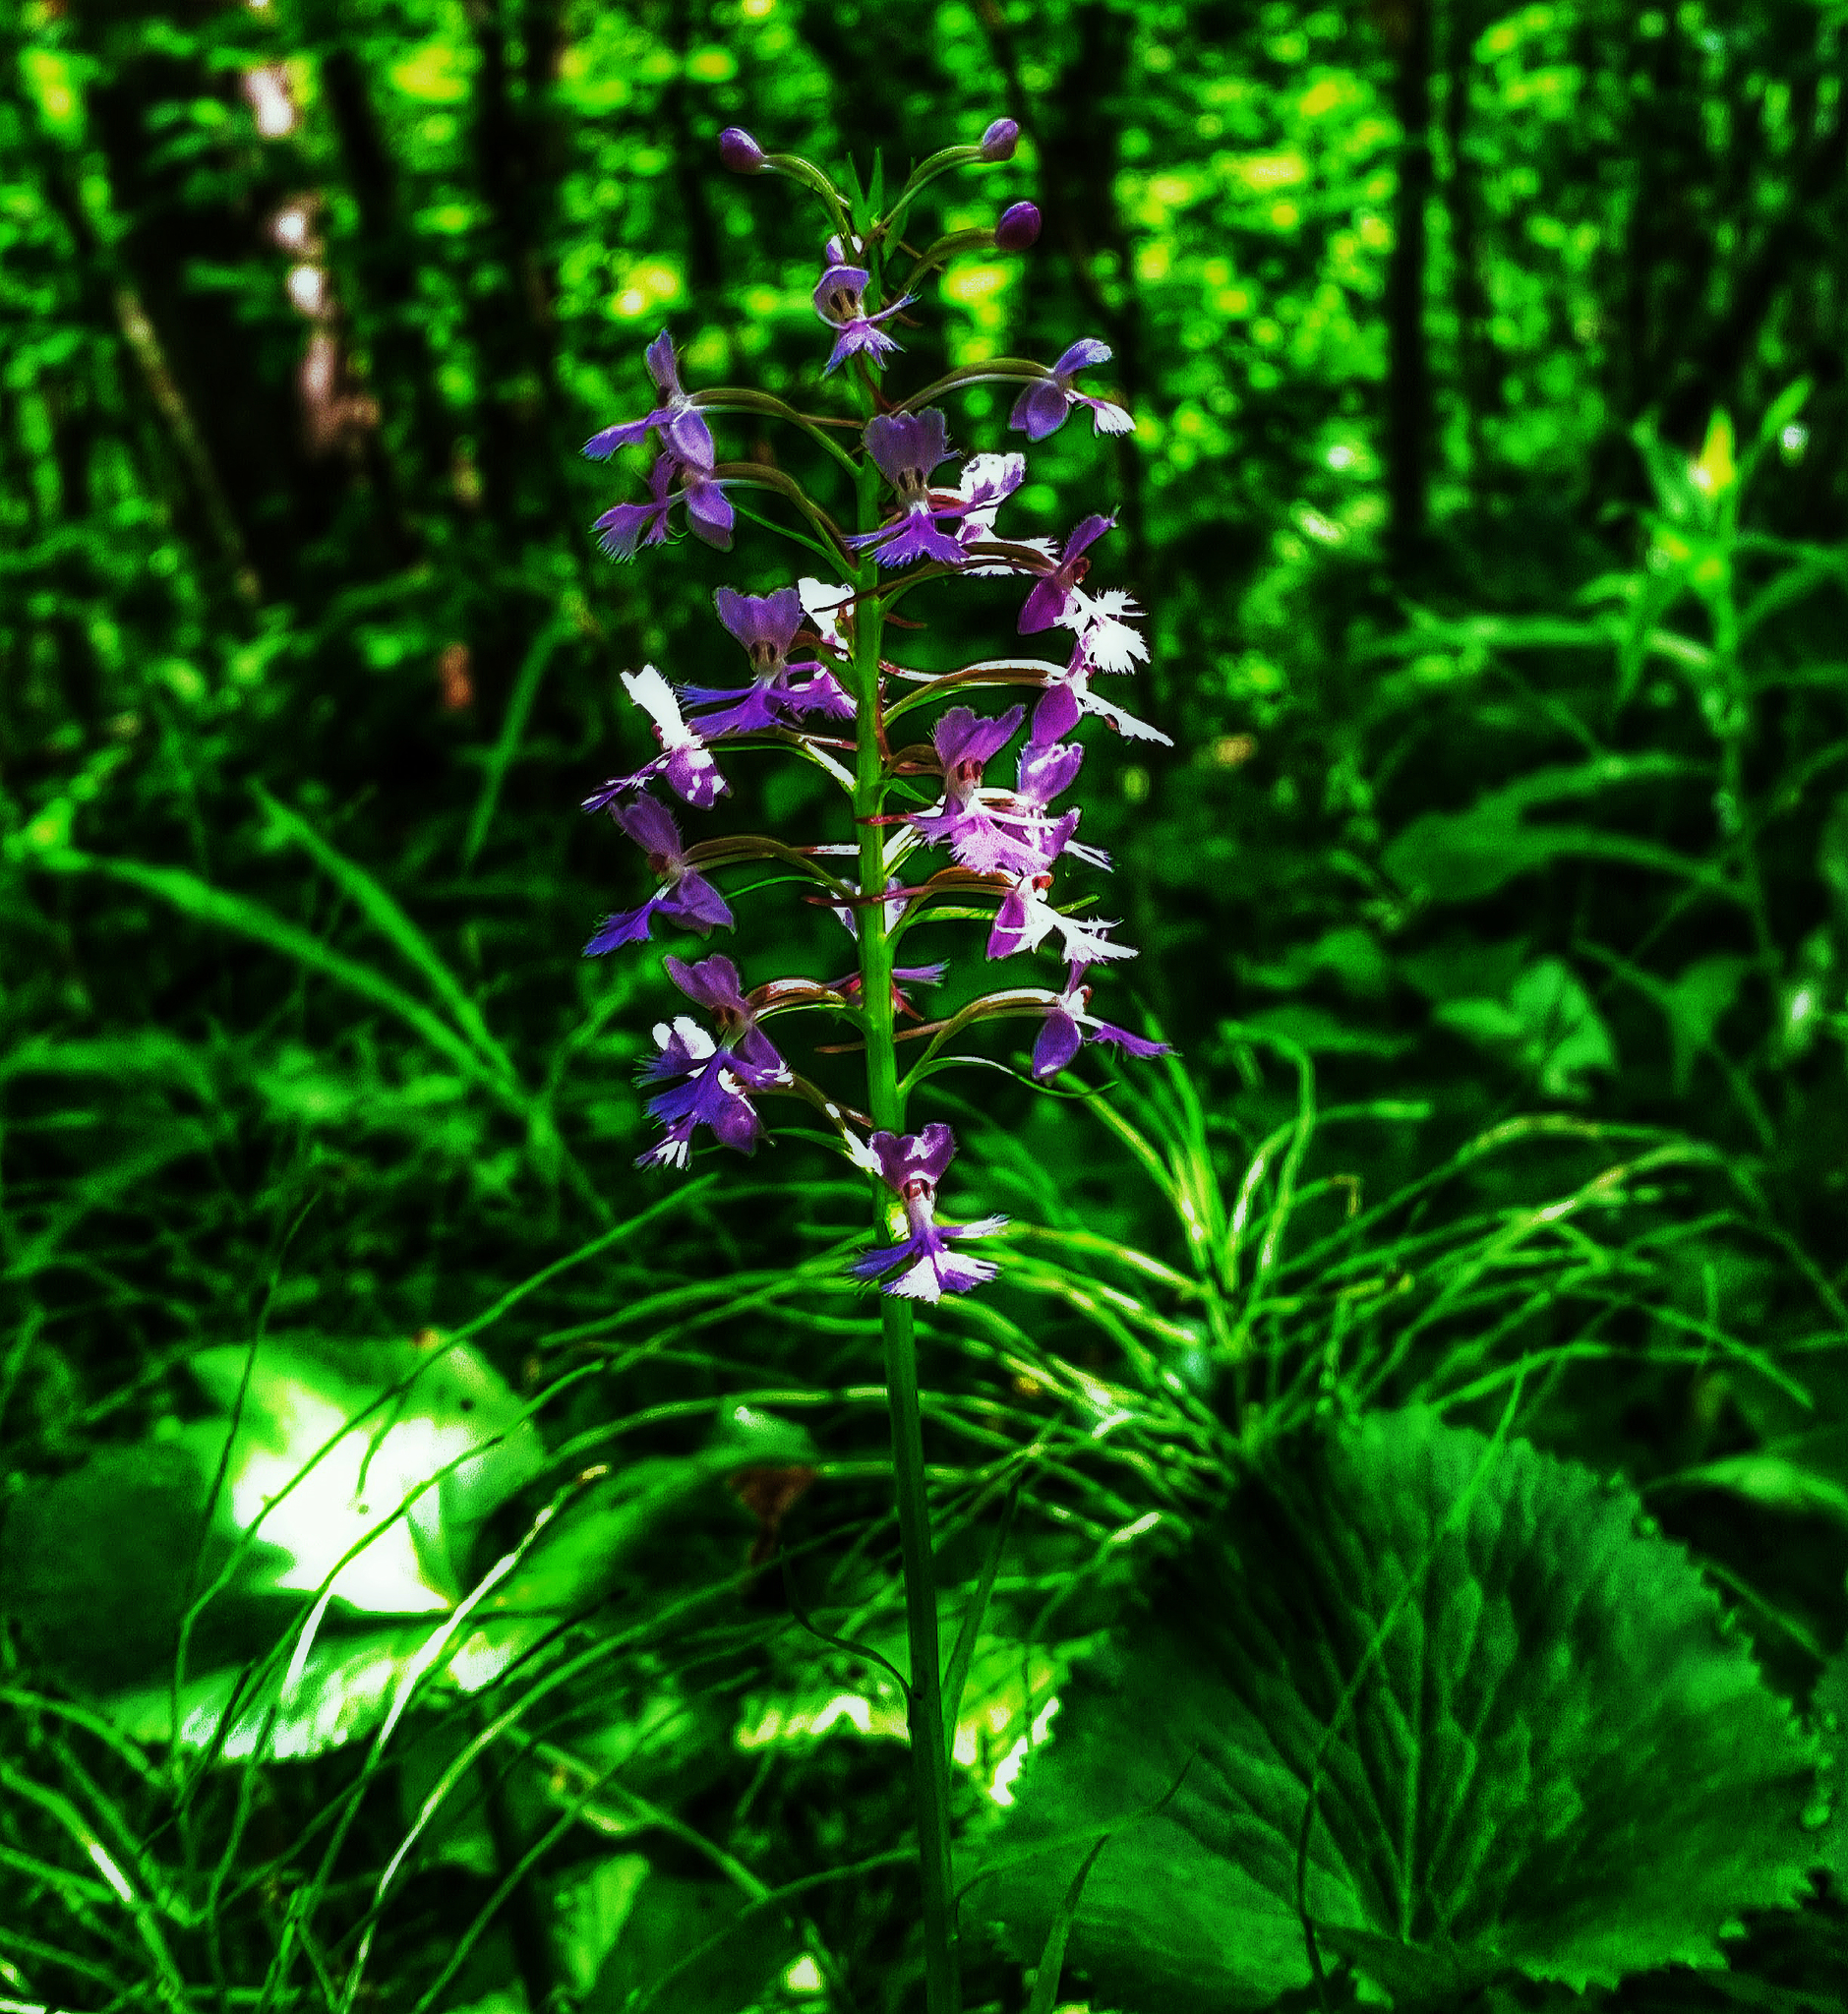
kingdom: Plantae
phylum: Tracheophyta
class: Liliopsida
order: Asparagales
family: Orchidaceae
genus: Platanthera
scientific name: Platanthera psycodes
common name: Lesser purple fringed orchid
